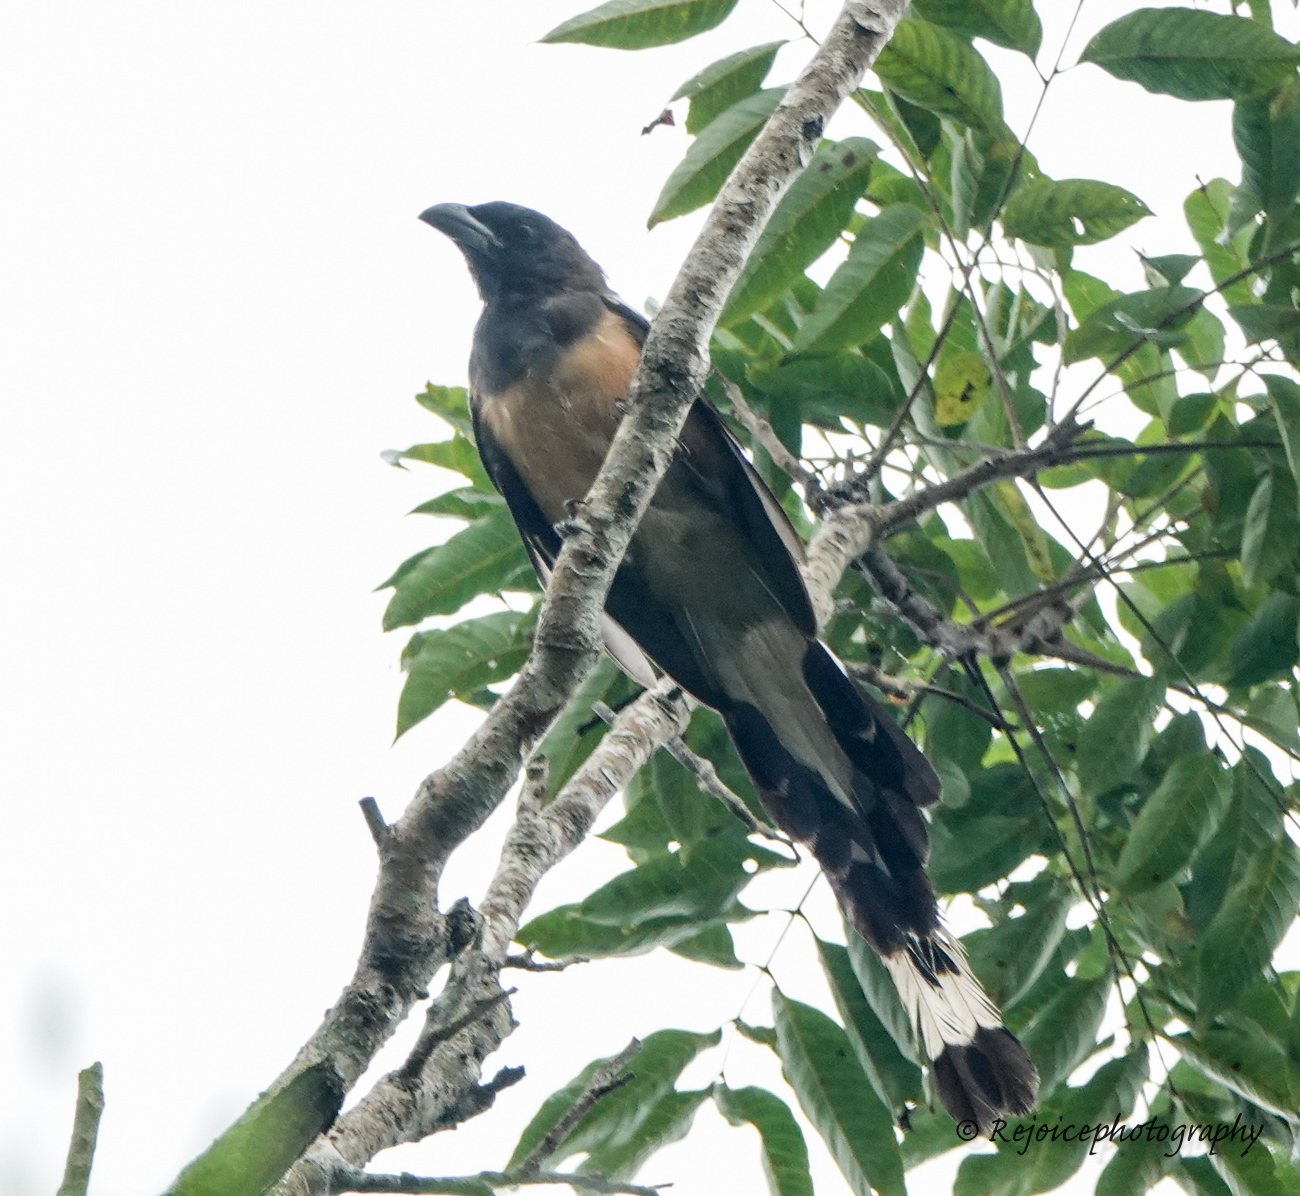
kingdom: Animalia
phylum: Chordata
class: Aves
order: Passeriformes
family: Corvidae
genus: Dendrocitta
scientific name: Dendrocitta vagabunda
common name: Rufous treepie
